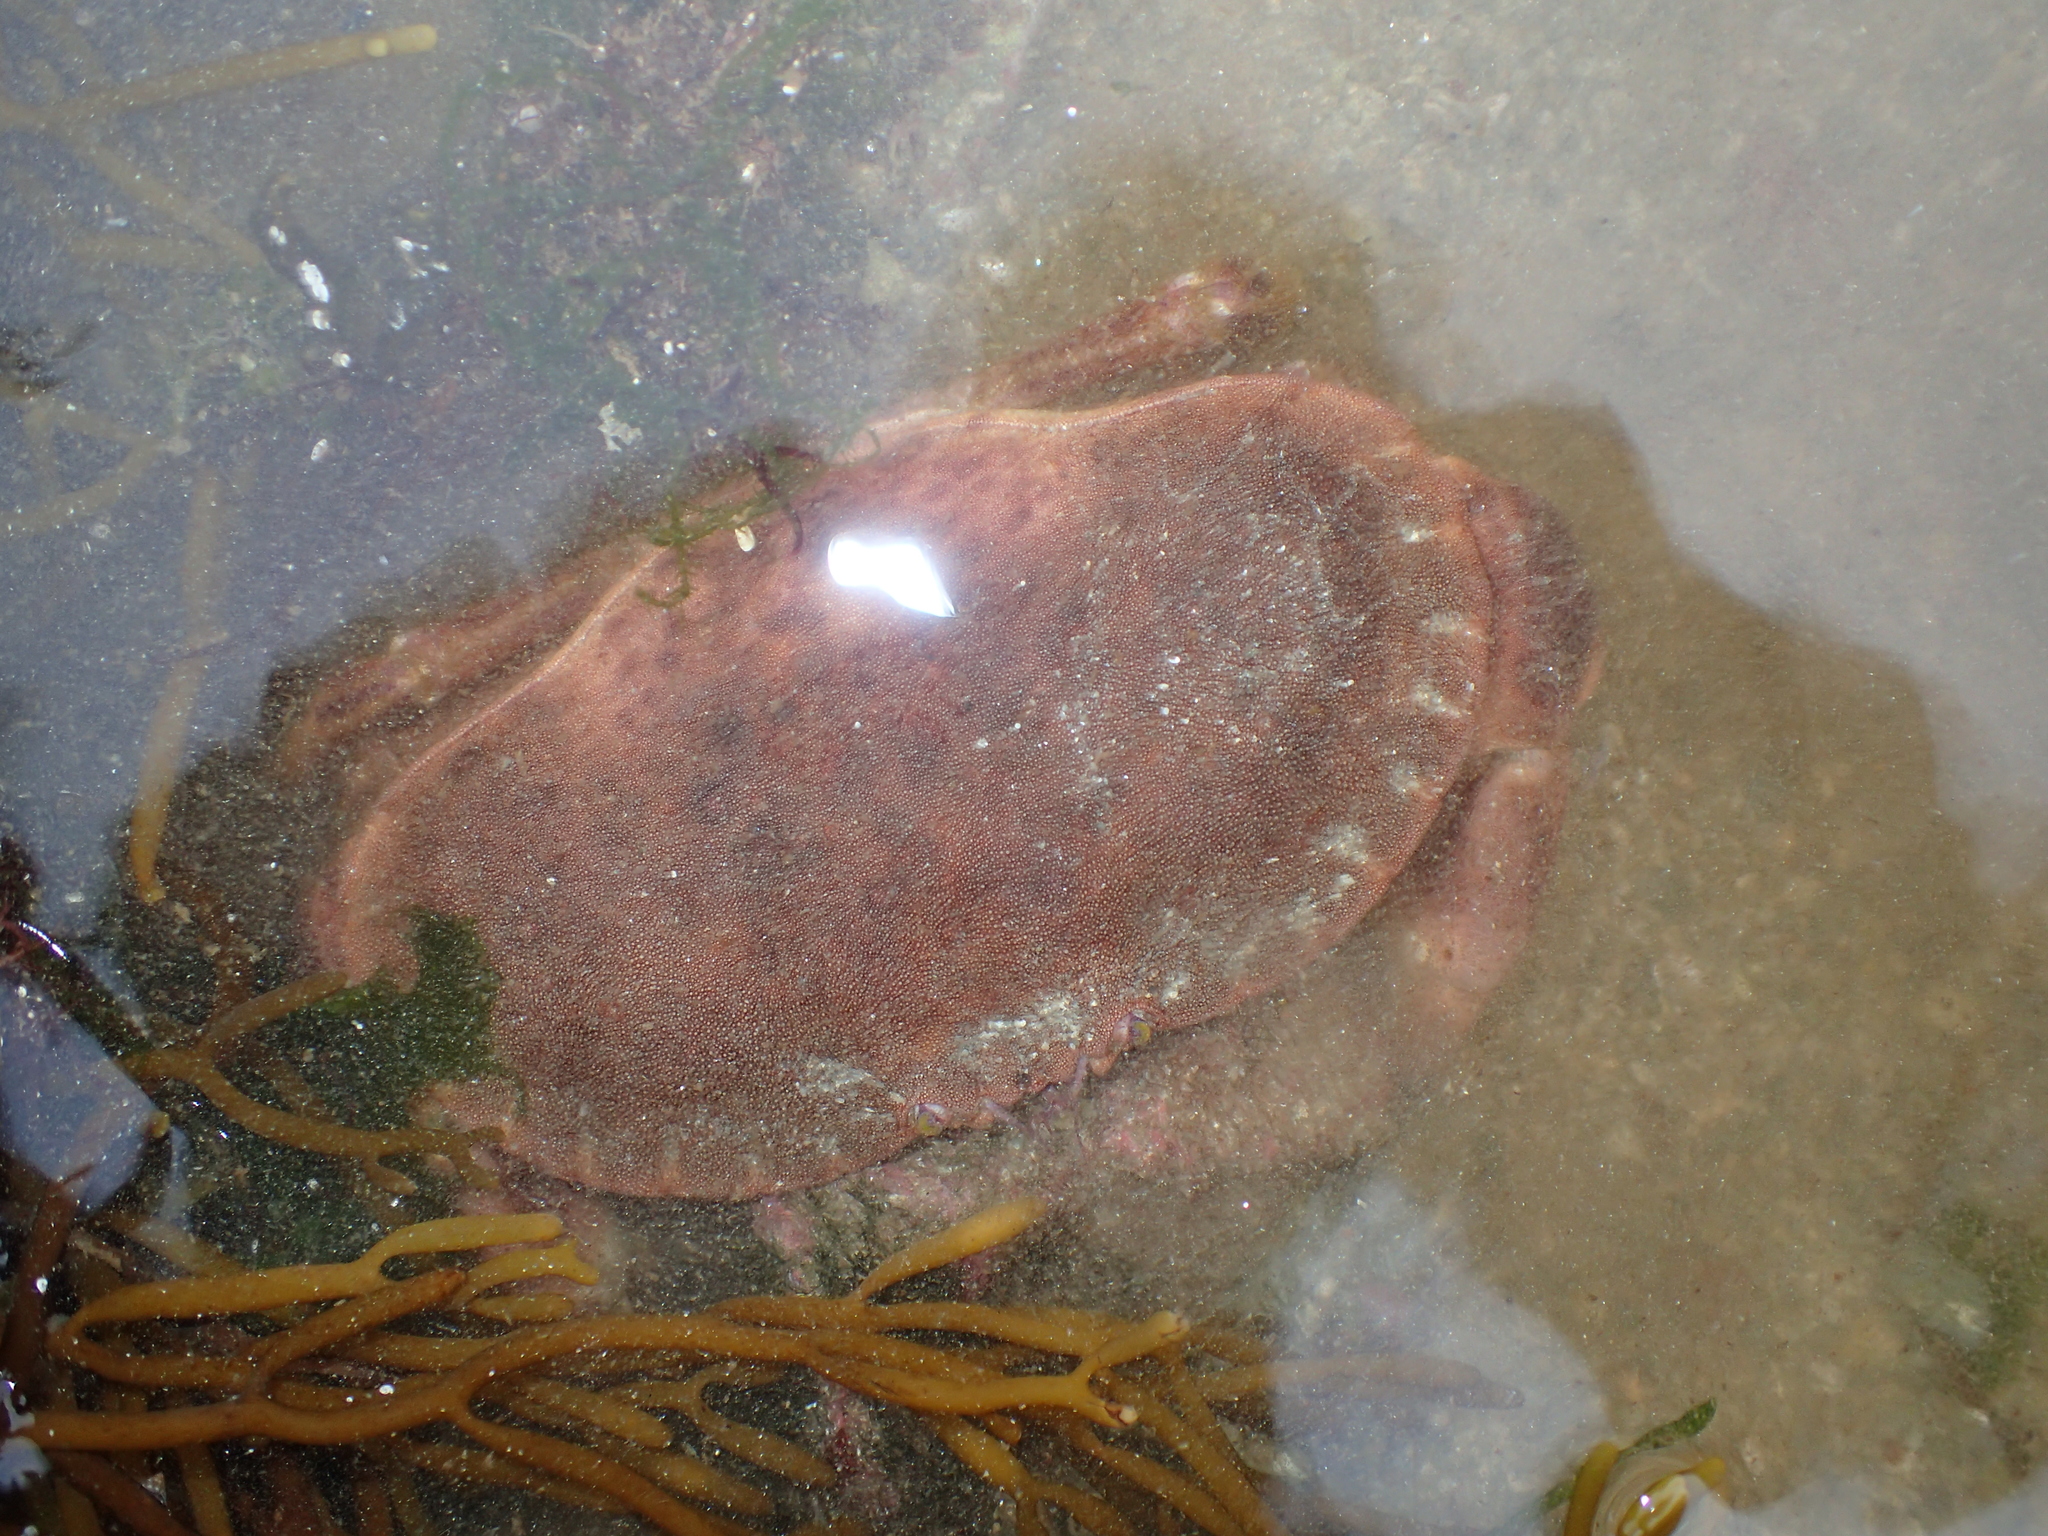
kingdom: Animalia
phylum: Arthropoda
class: Malacostraca
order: Decapoda
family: Cancridae
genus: Cancer
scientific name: Cancer pagurus
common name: Edible crab
